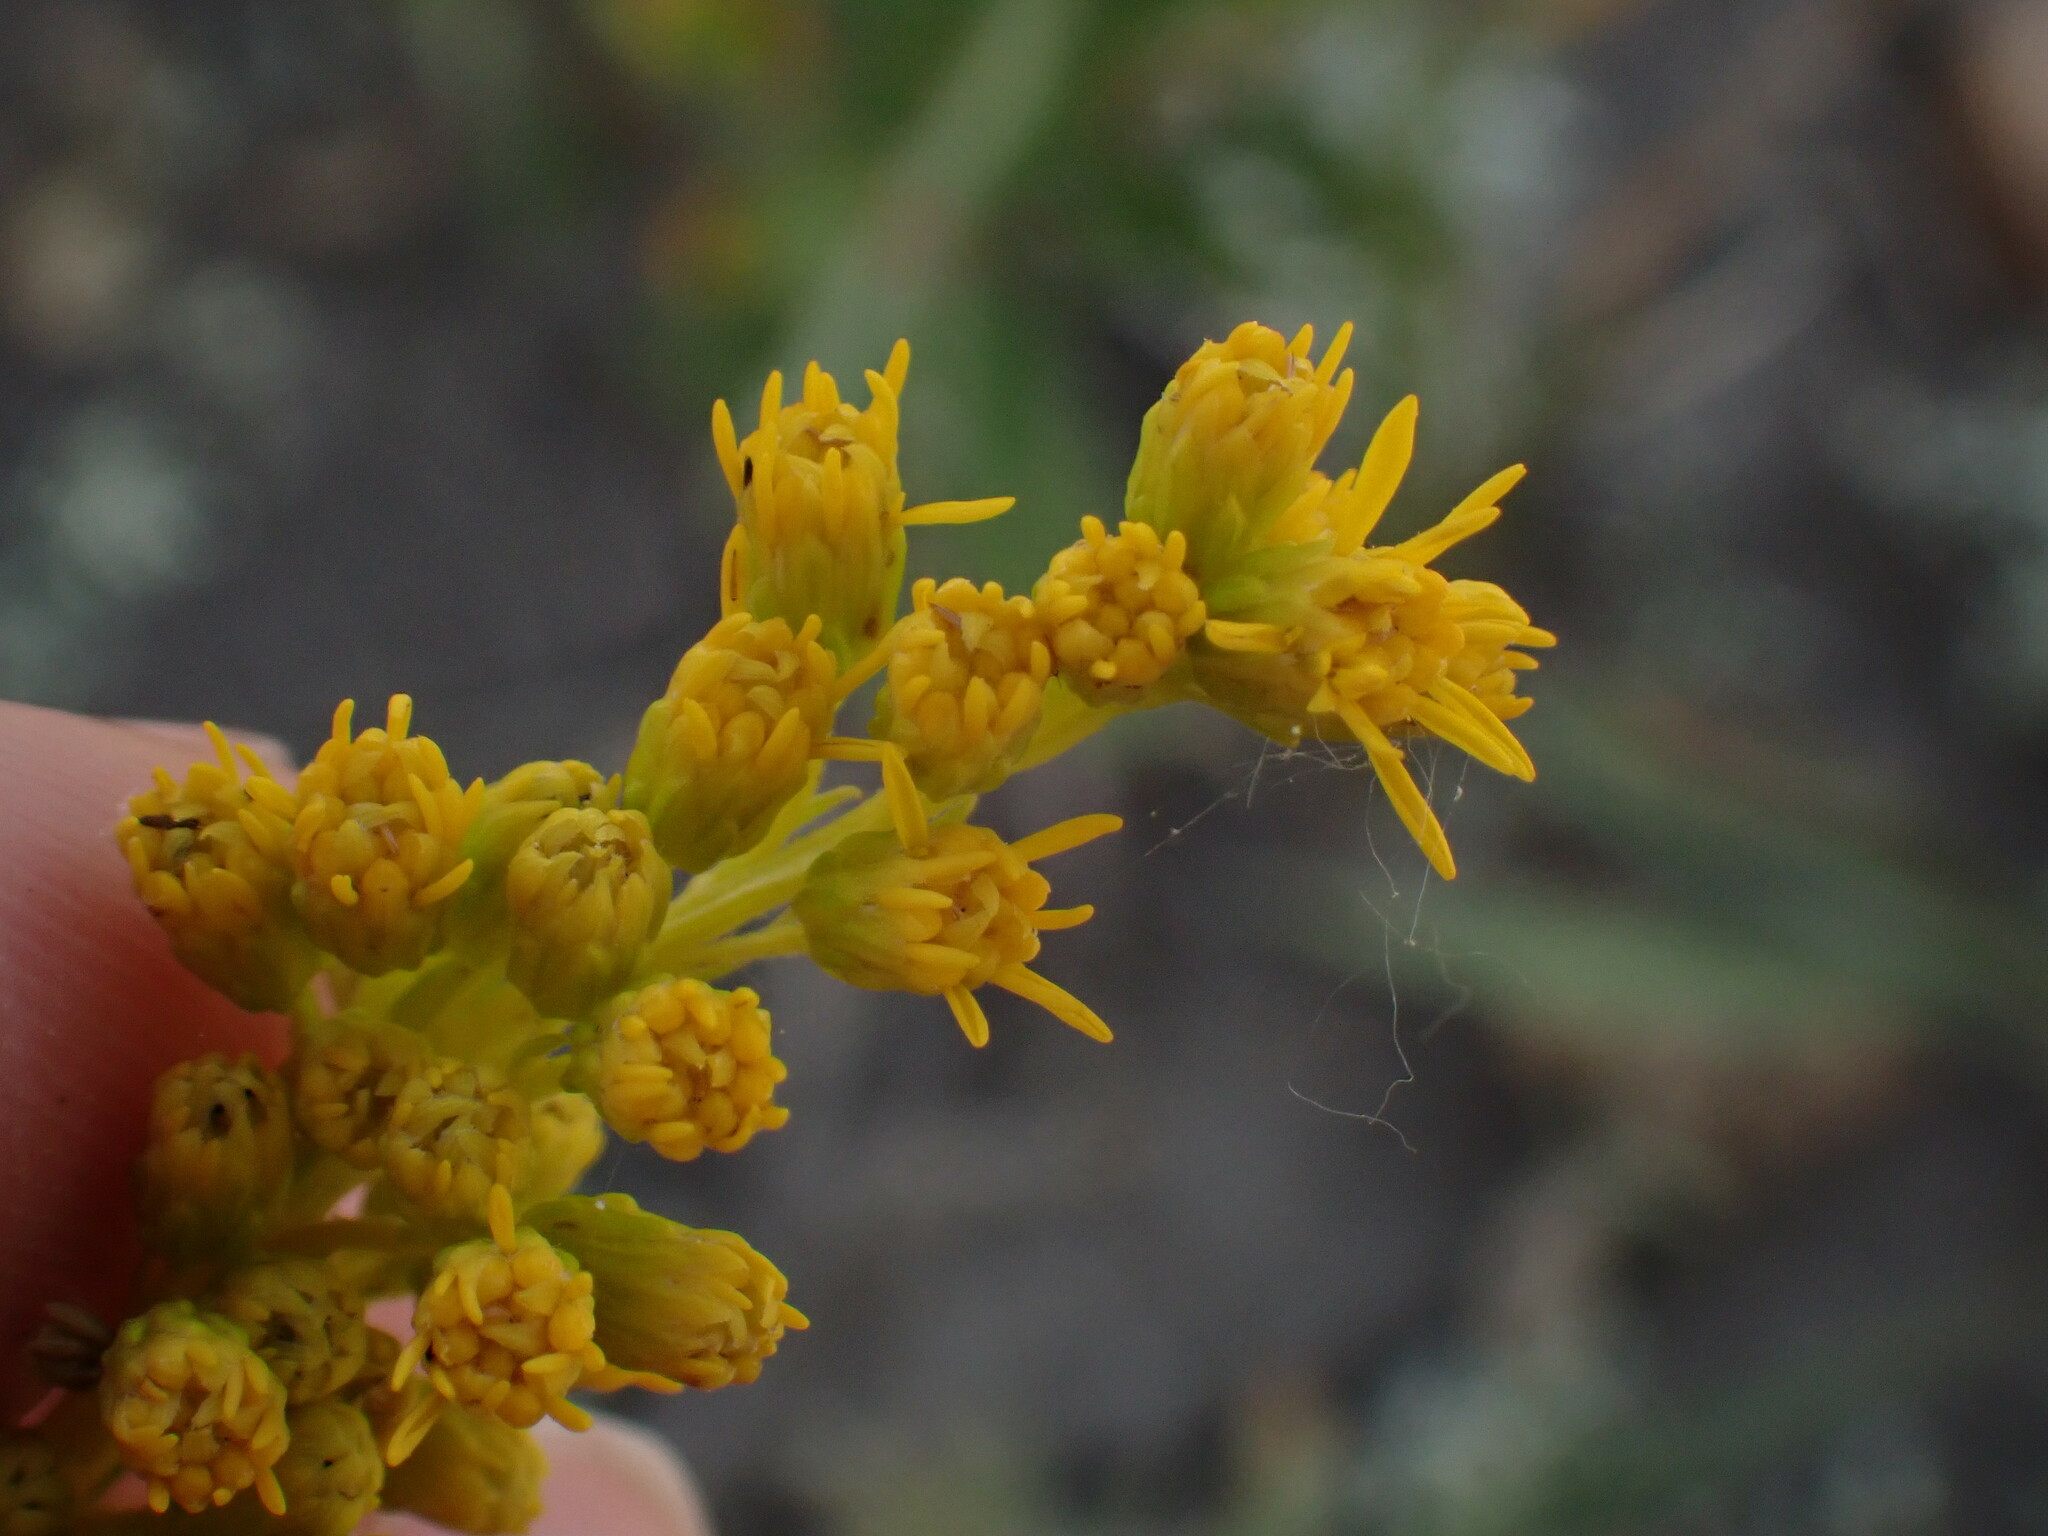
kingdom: Plantae
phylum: Tracheophyta
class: Magnoliopsida
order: Asterales
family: Asteraceae
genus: Solidago
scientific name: Solidago missouriensis
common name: Prairie goldenrod
